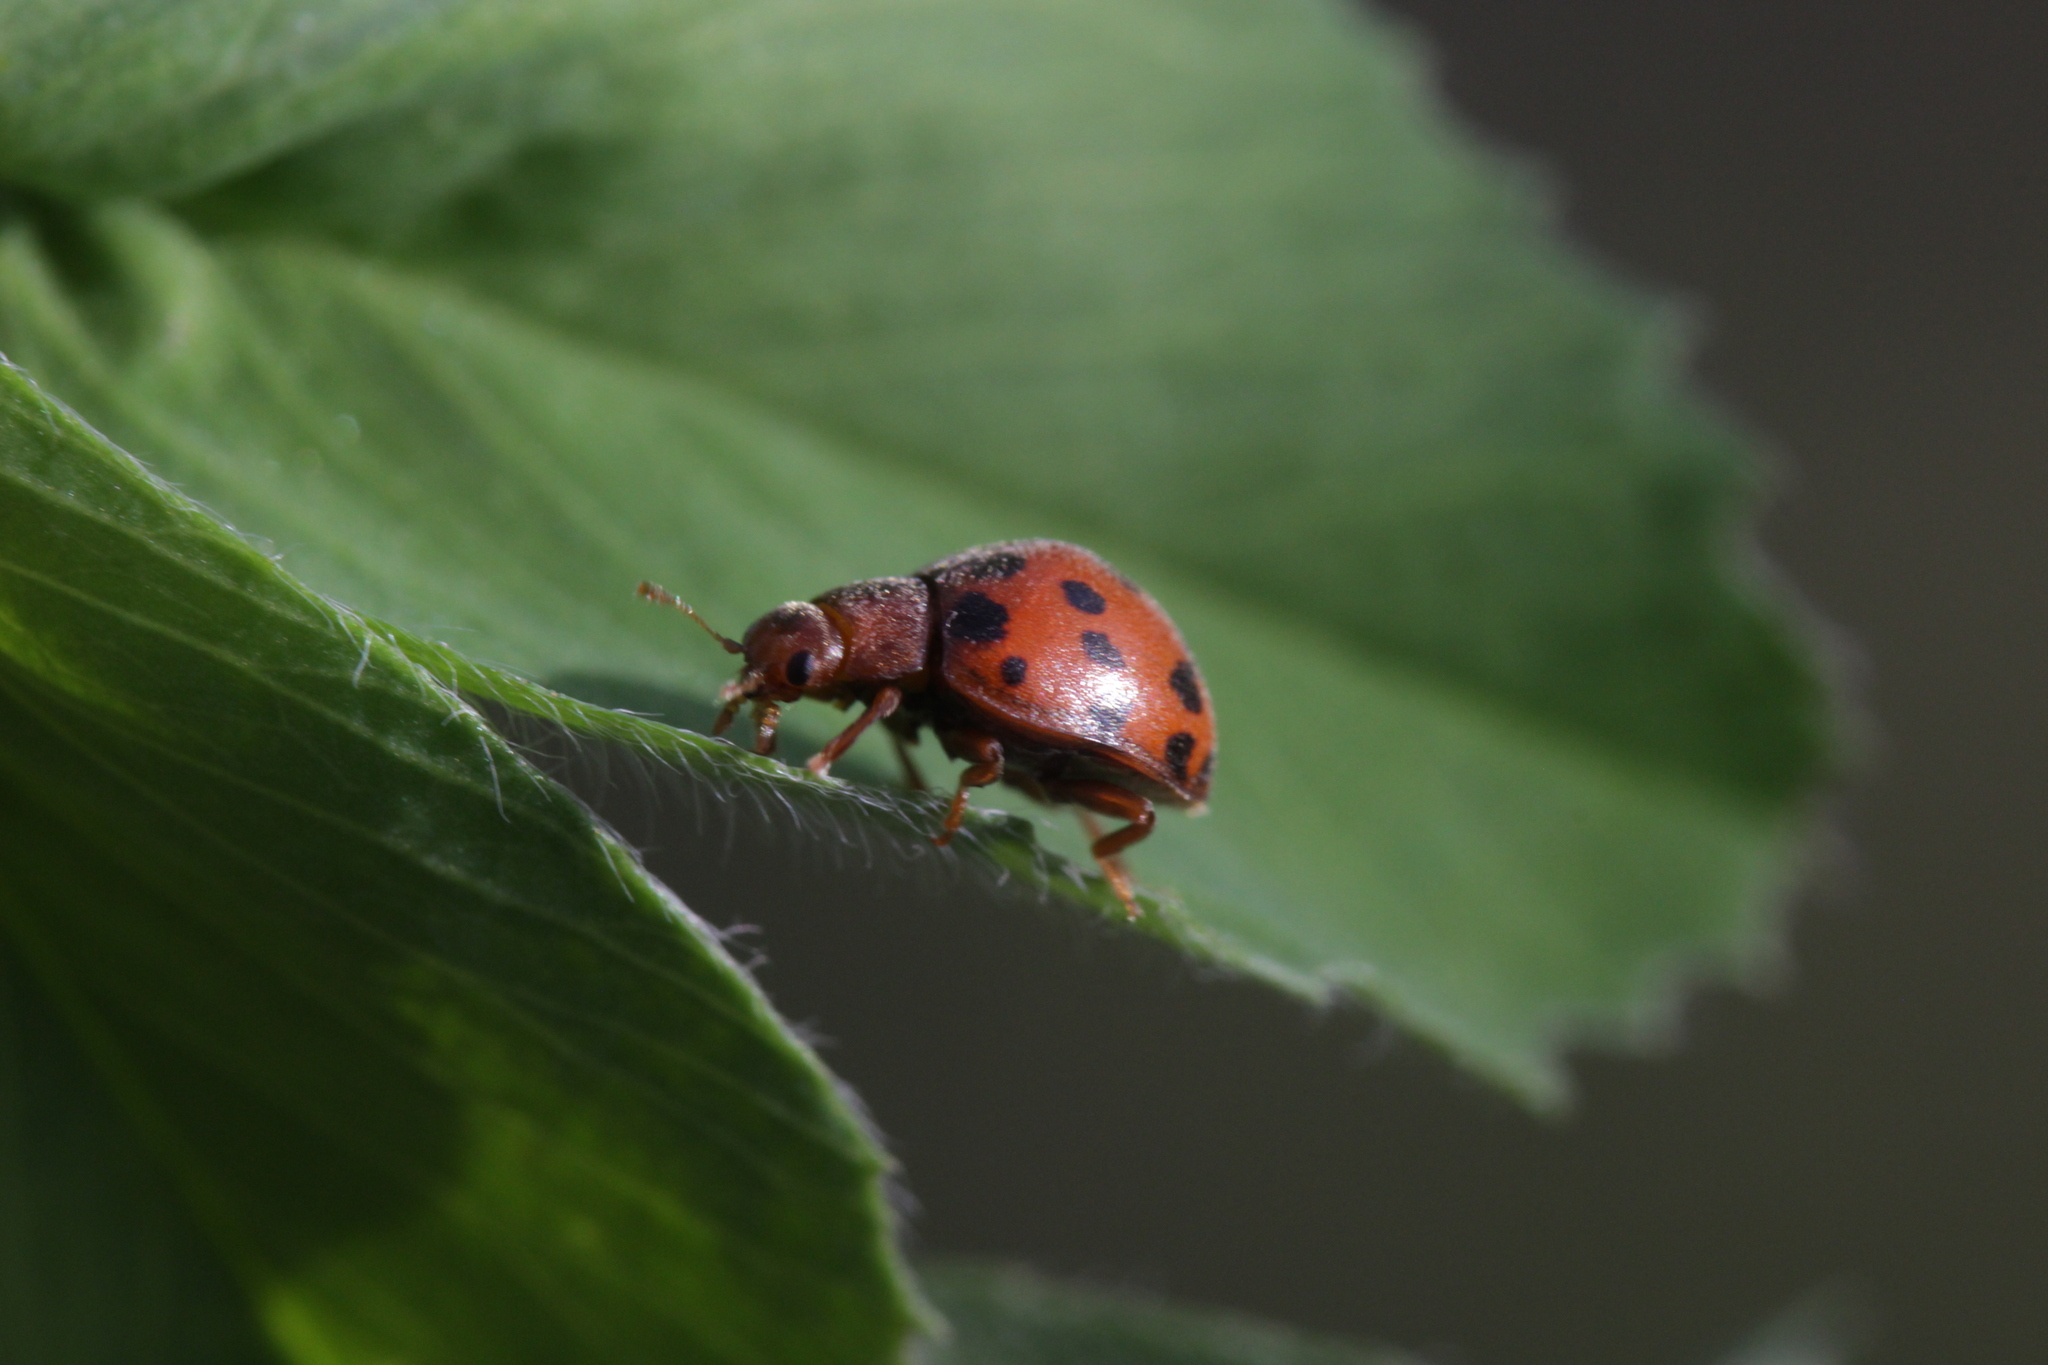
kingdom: Animalia
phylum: Arthropoda
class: Insecta
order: Coleoptera
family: Coccinellidae
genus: Subcoccinella
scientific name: Subcoccinella vigintiquatuorpunctata
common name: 24-spot ladybird
